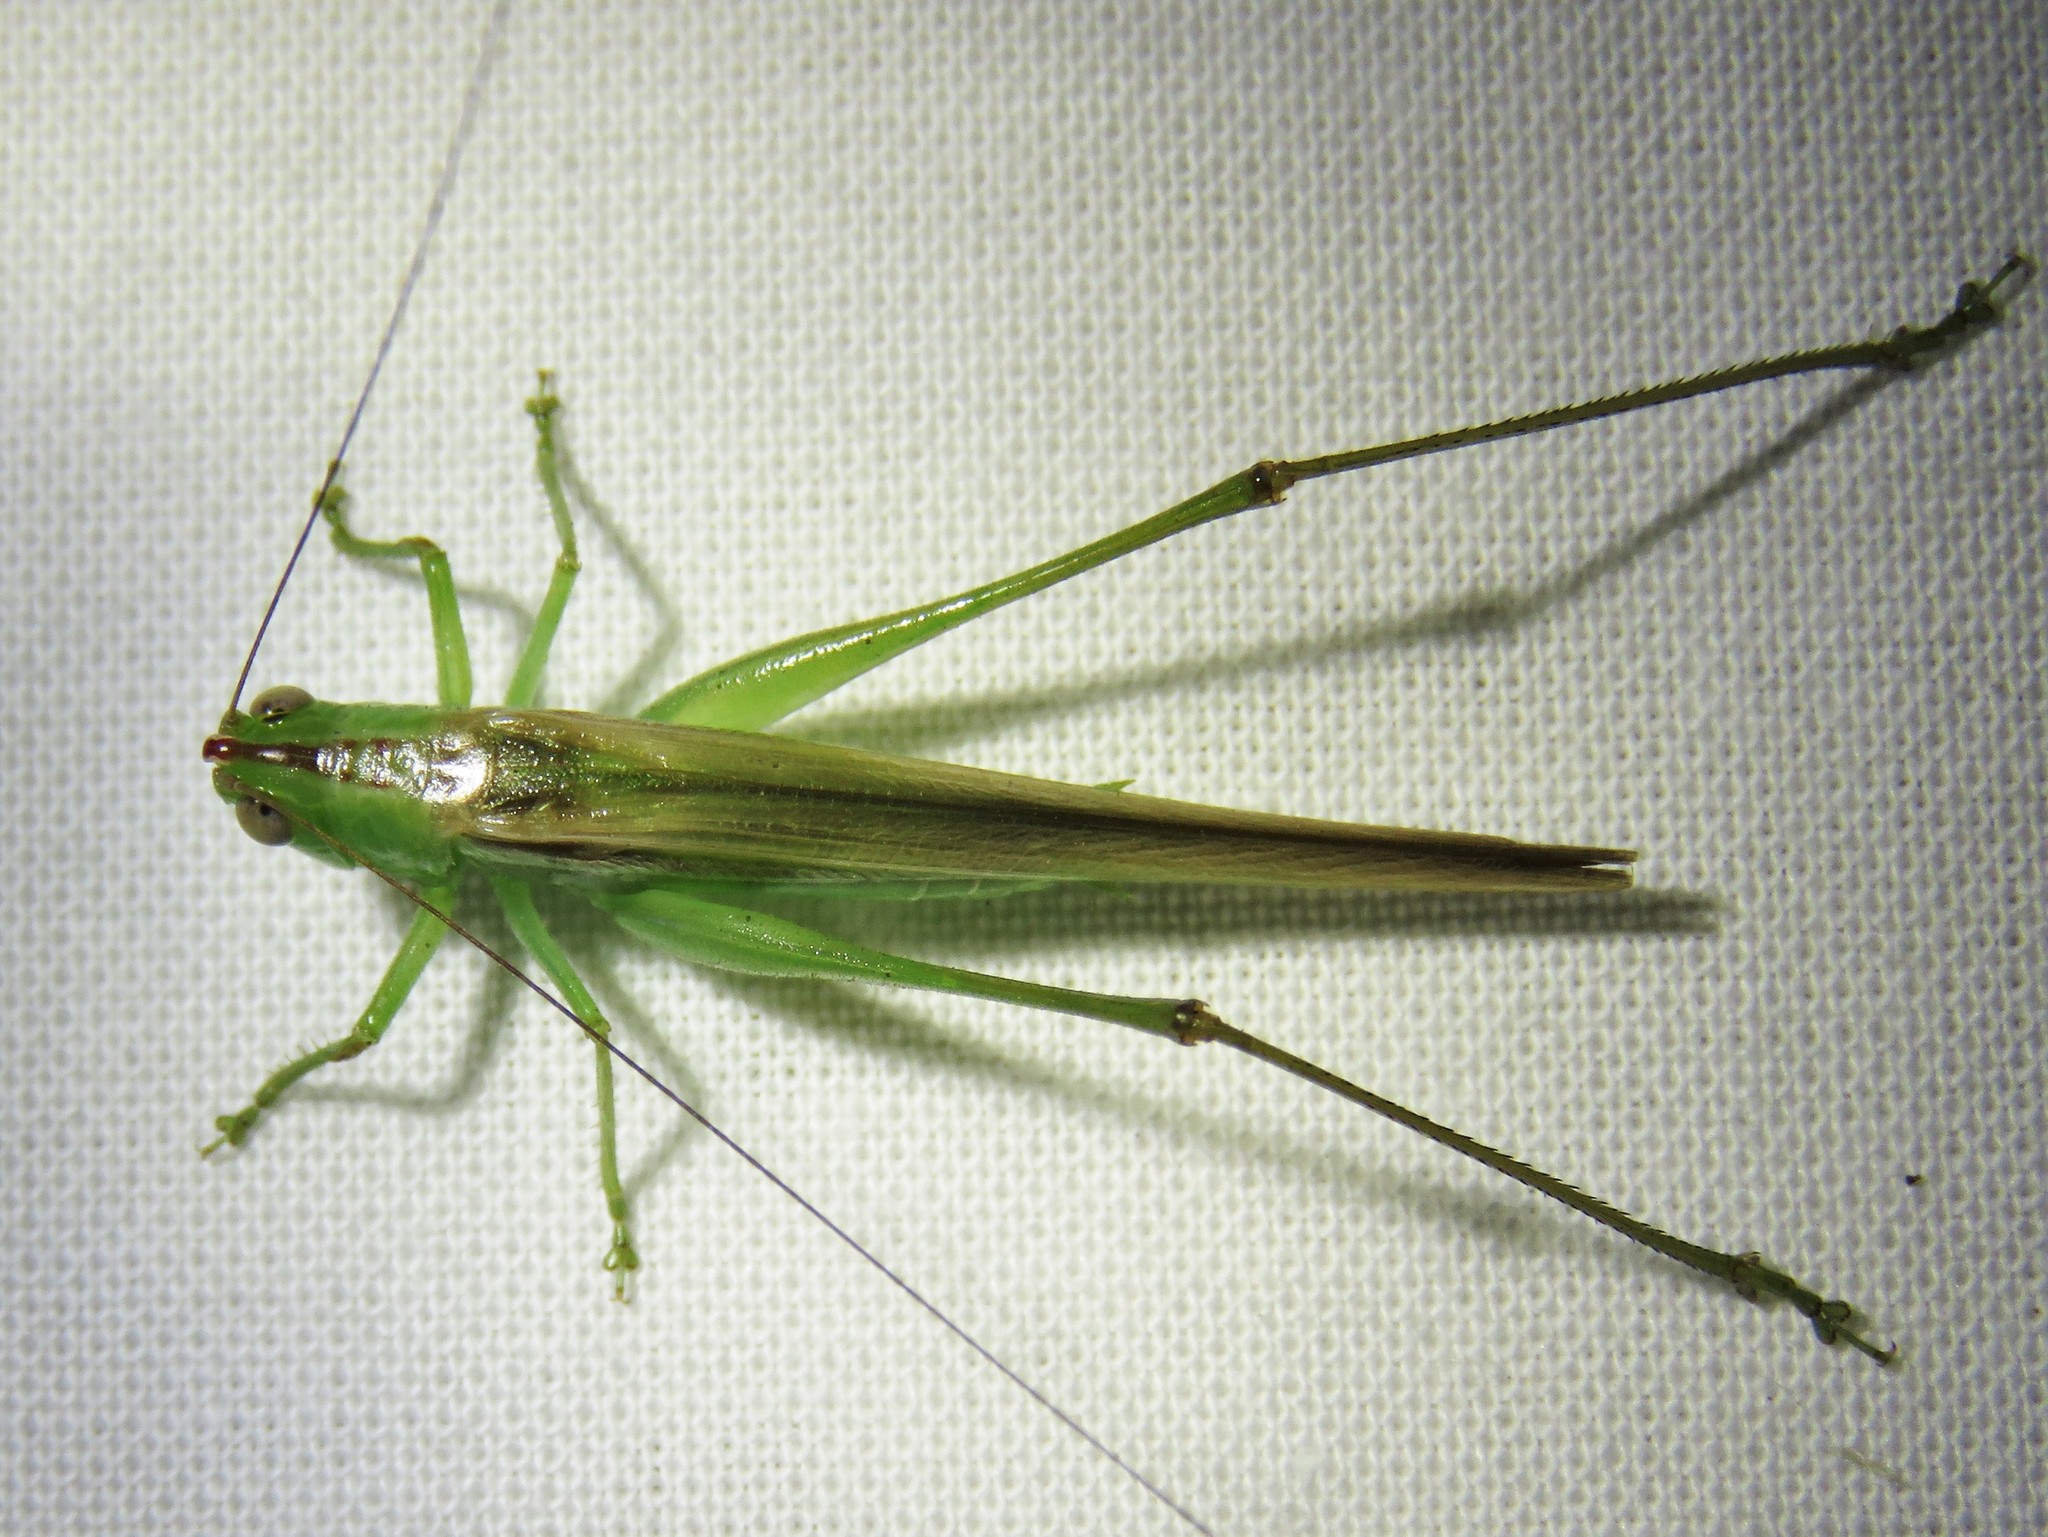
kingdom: Animalia
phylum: Arthropoda
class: Insecta
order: Orthoptera
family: Tettigoniidae
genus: Conocephalus
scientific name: Conocephalus fasciatus
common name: Slender meadow katydid
